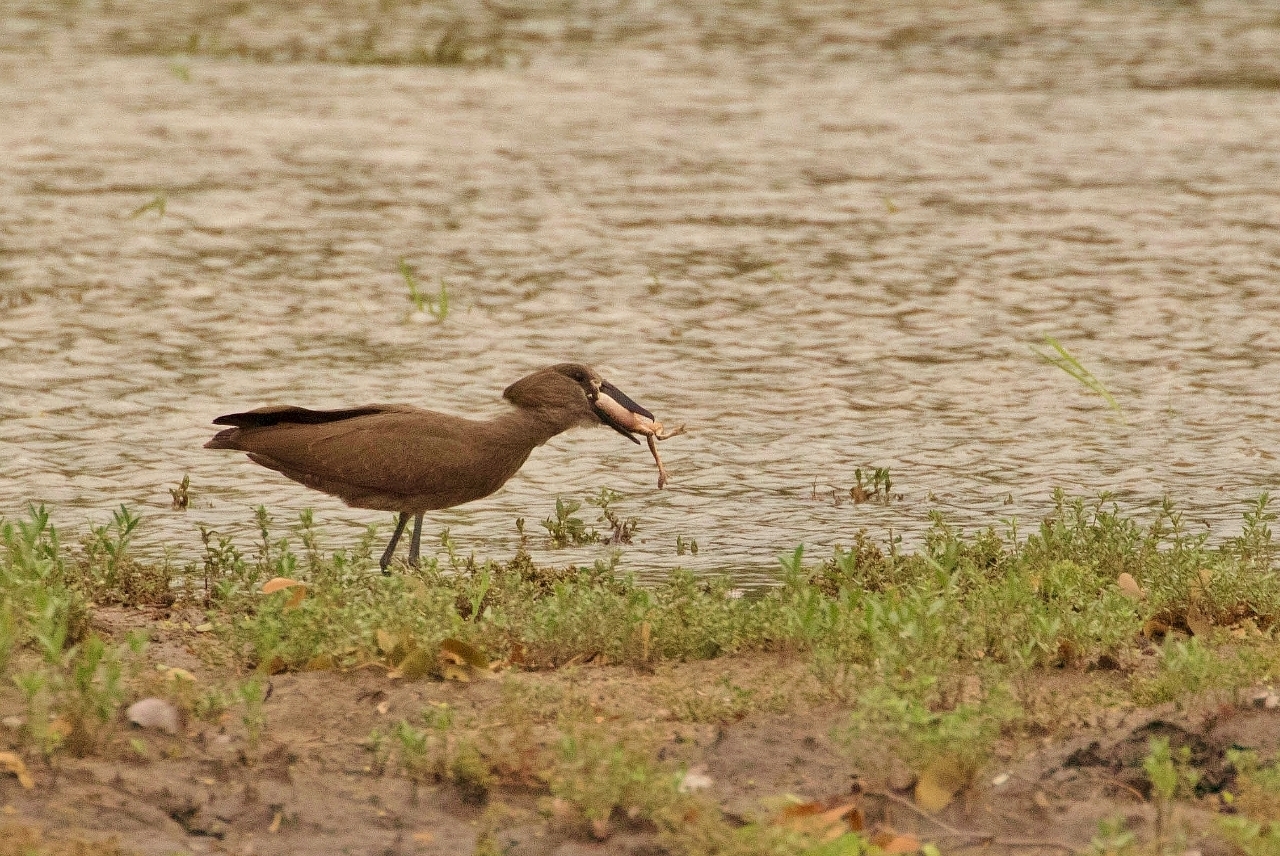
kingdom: Animalia
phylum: Chordata
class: Amphibia
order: Anura
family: Rhacophoridae
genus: Chiromantis
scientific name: Chiromantis xerampelina
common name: African gray treefrog
